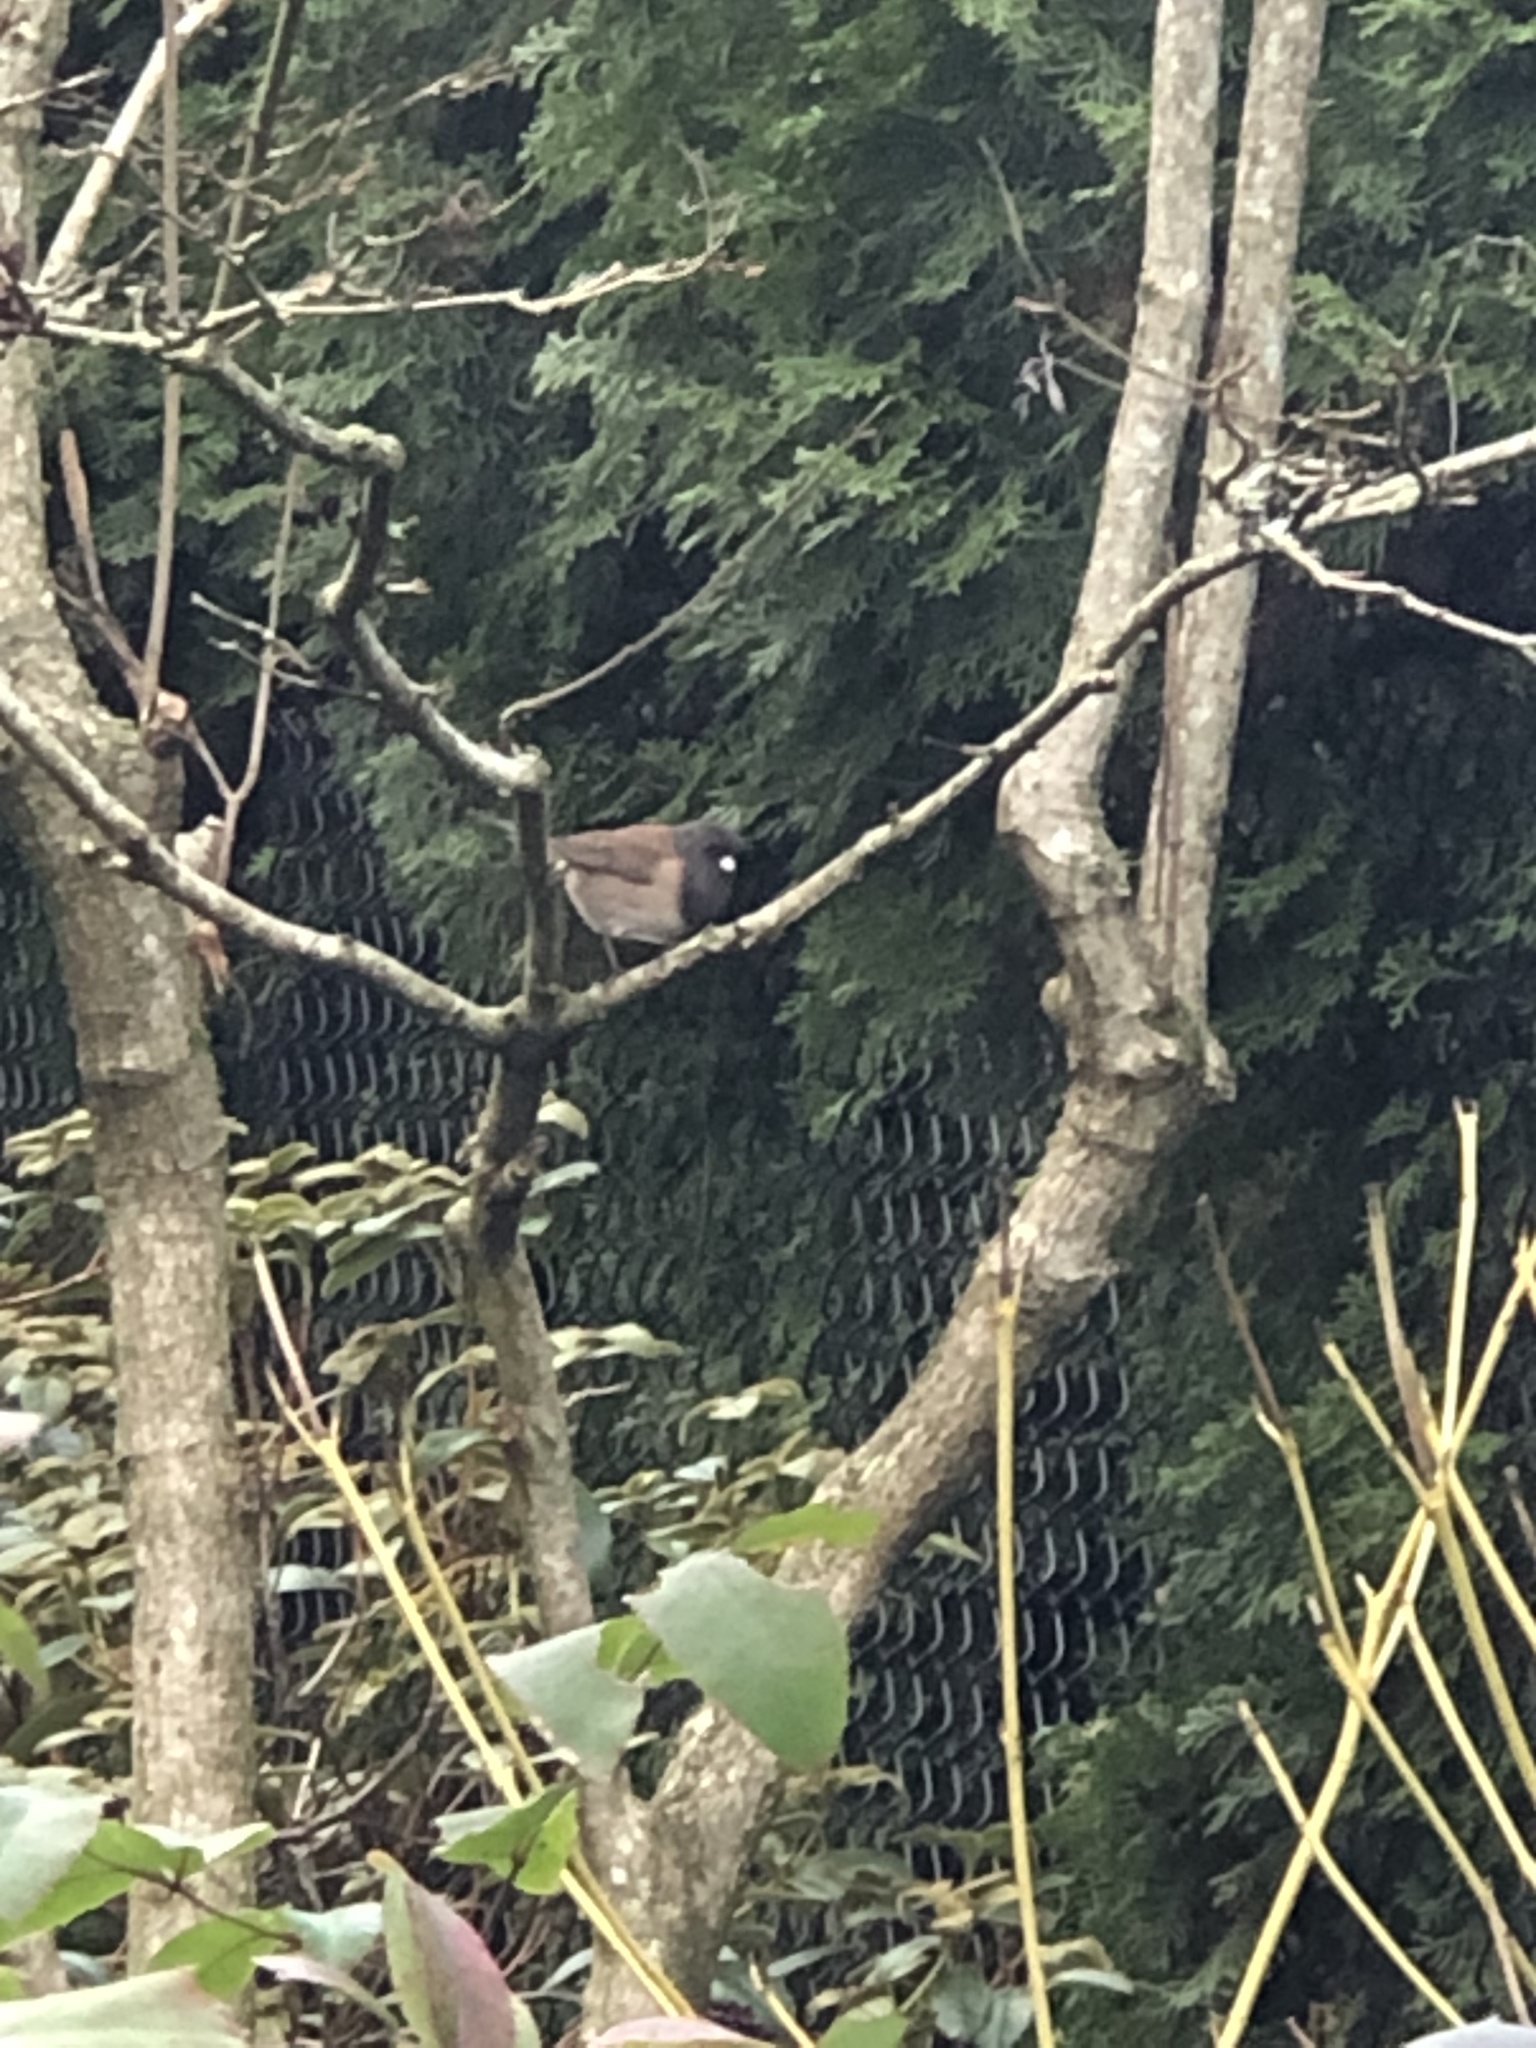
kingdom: Animalia
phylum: Chordata
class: Aves
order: Passeriformes
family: Passerellidae
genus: Junco
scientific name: Junco hyemalis
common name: Dark-eyed junco
